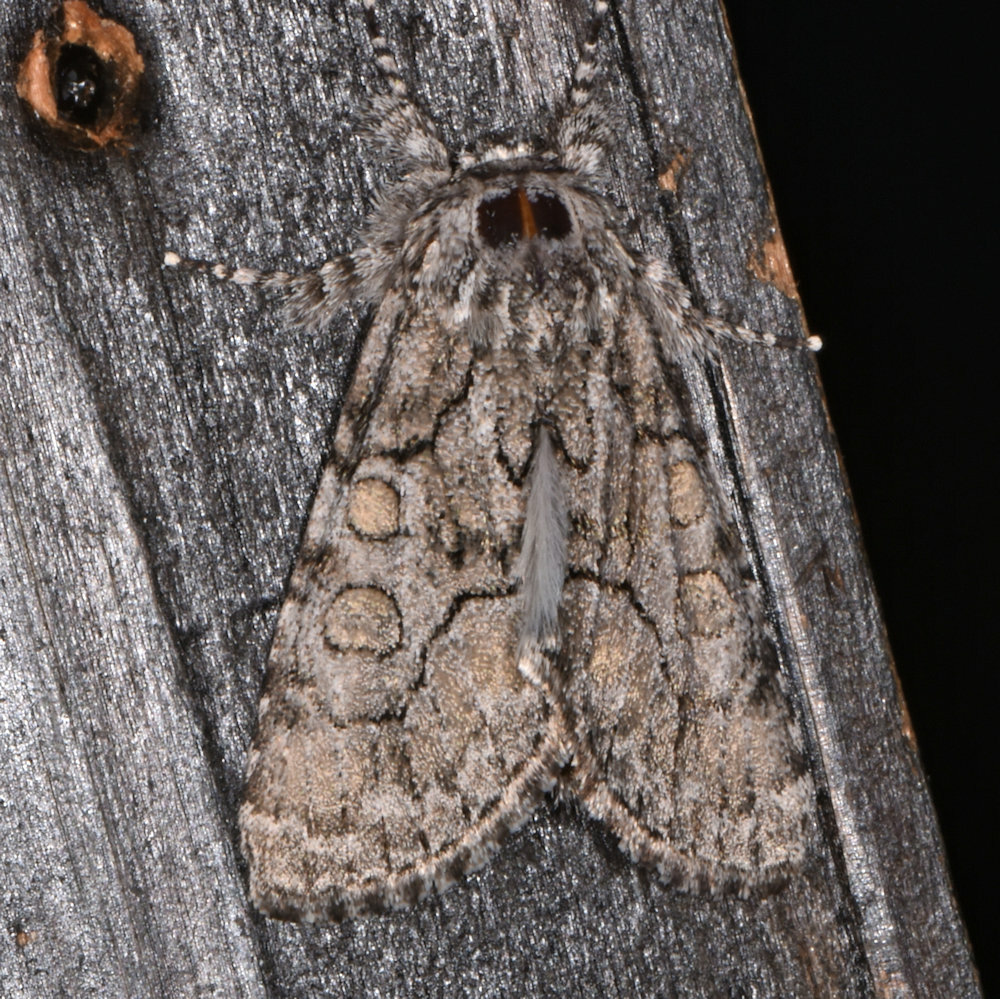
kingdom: Animalia
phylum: Arthropoda
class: Insecta
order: Lepidoptera
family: Noctuidae
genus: Raphia
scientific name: Raphia frater
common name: Brother
